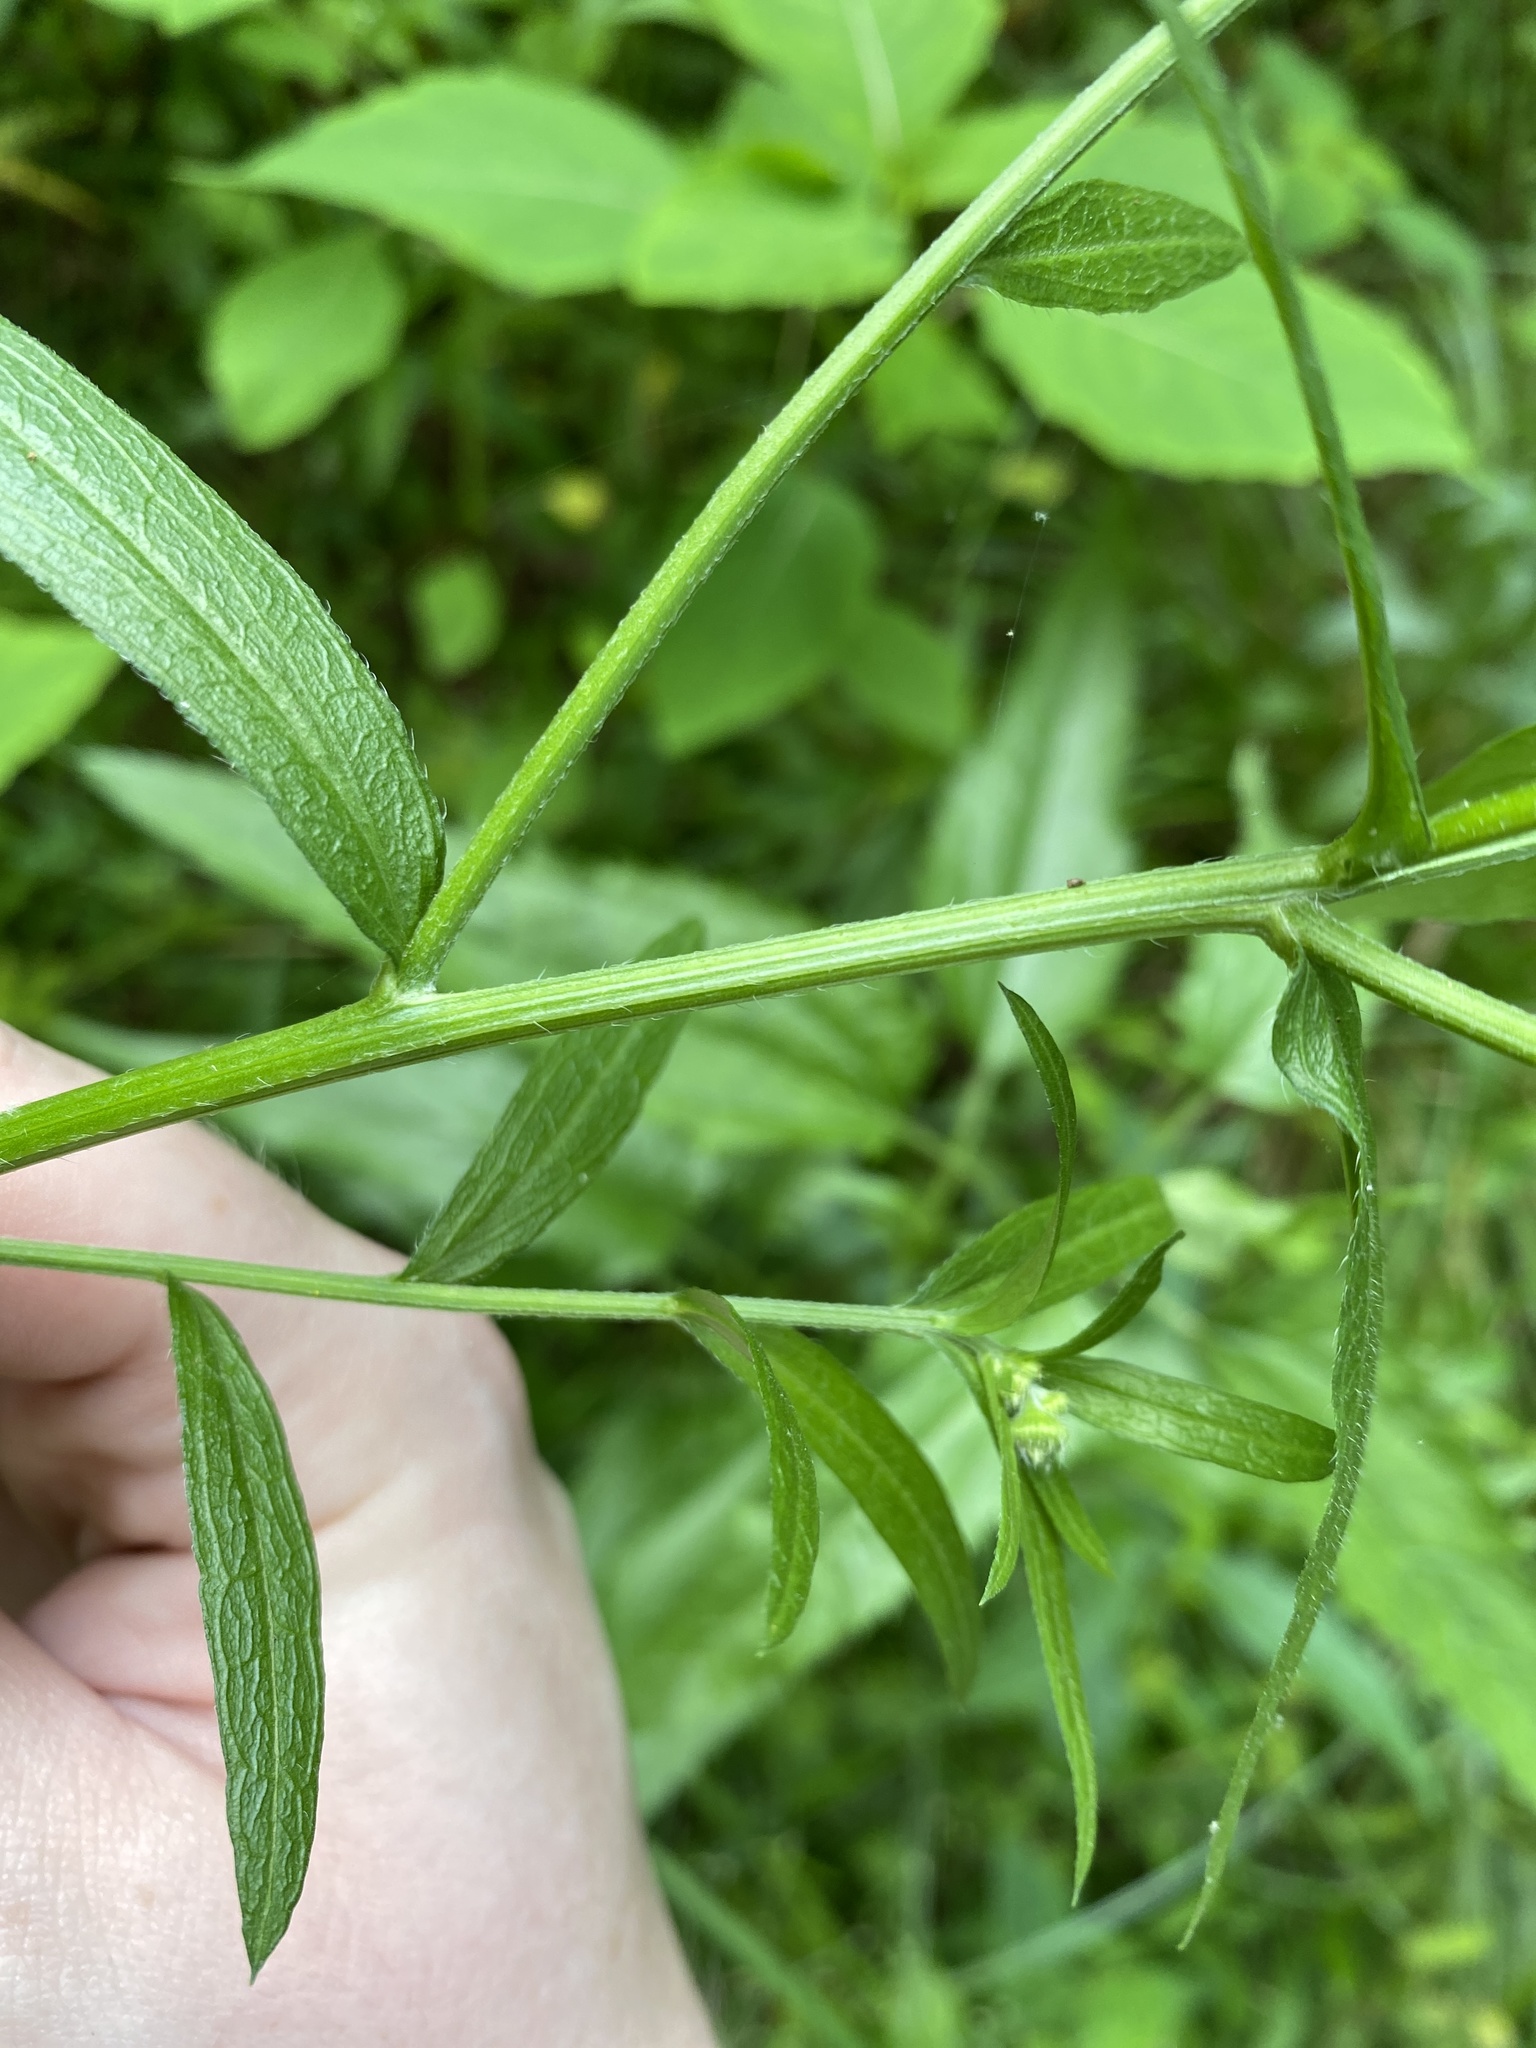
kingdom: Plantae
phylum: Tracheophyta
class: Magnoliopsida
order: Asterales
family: Asteraceae
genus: Erigeron
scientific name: Erigeron strigosus
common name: Common eastern fleabane
